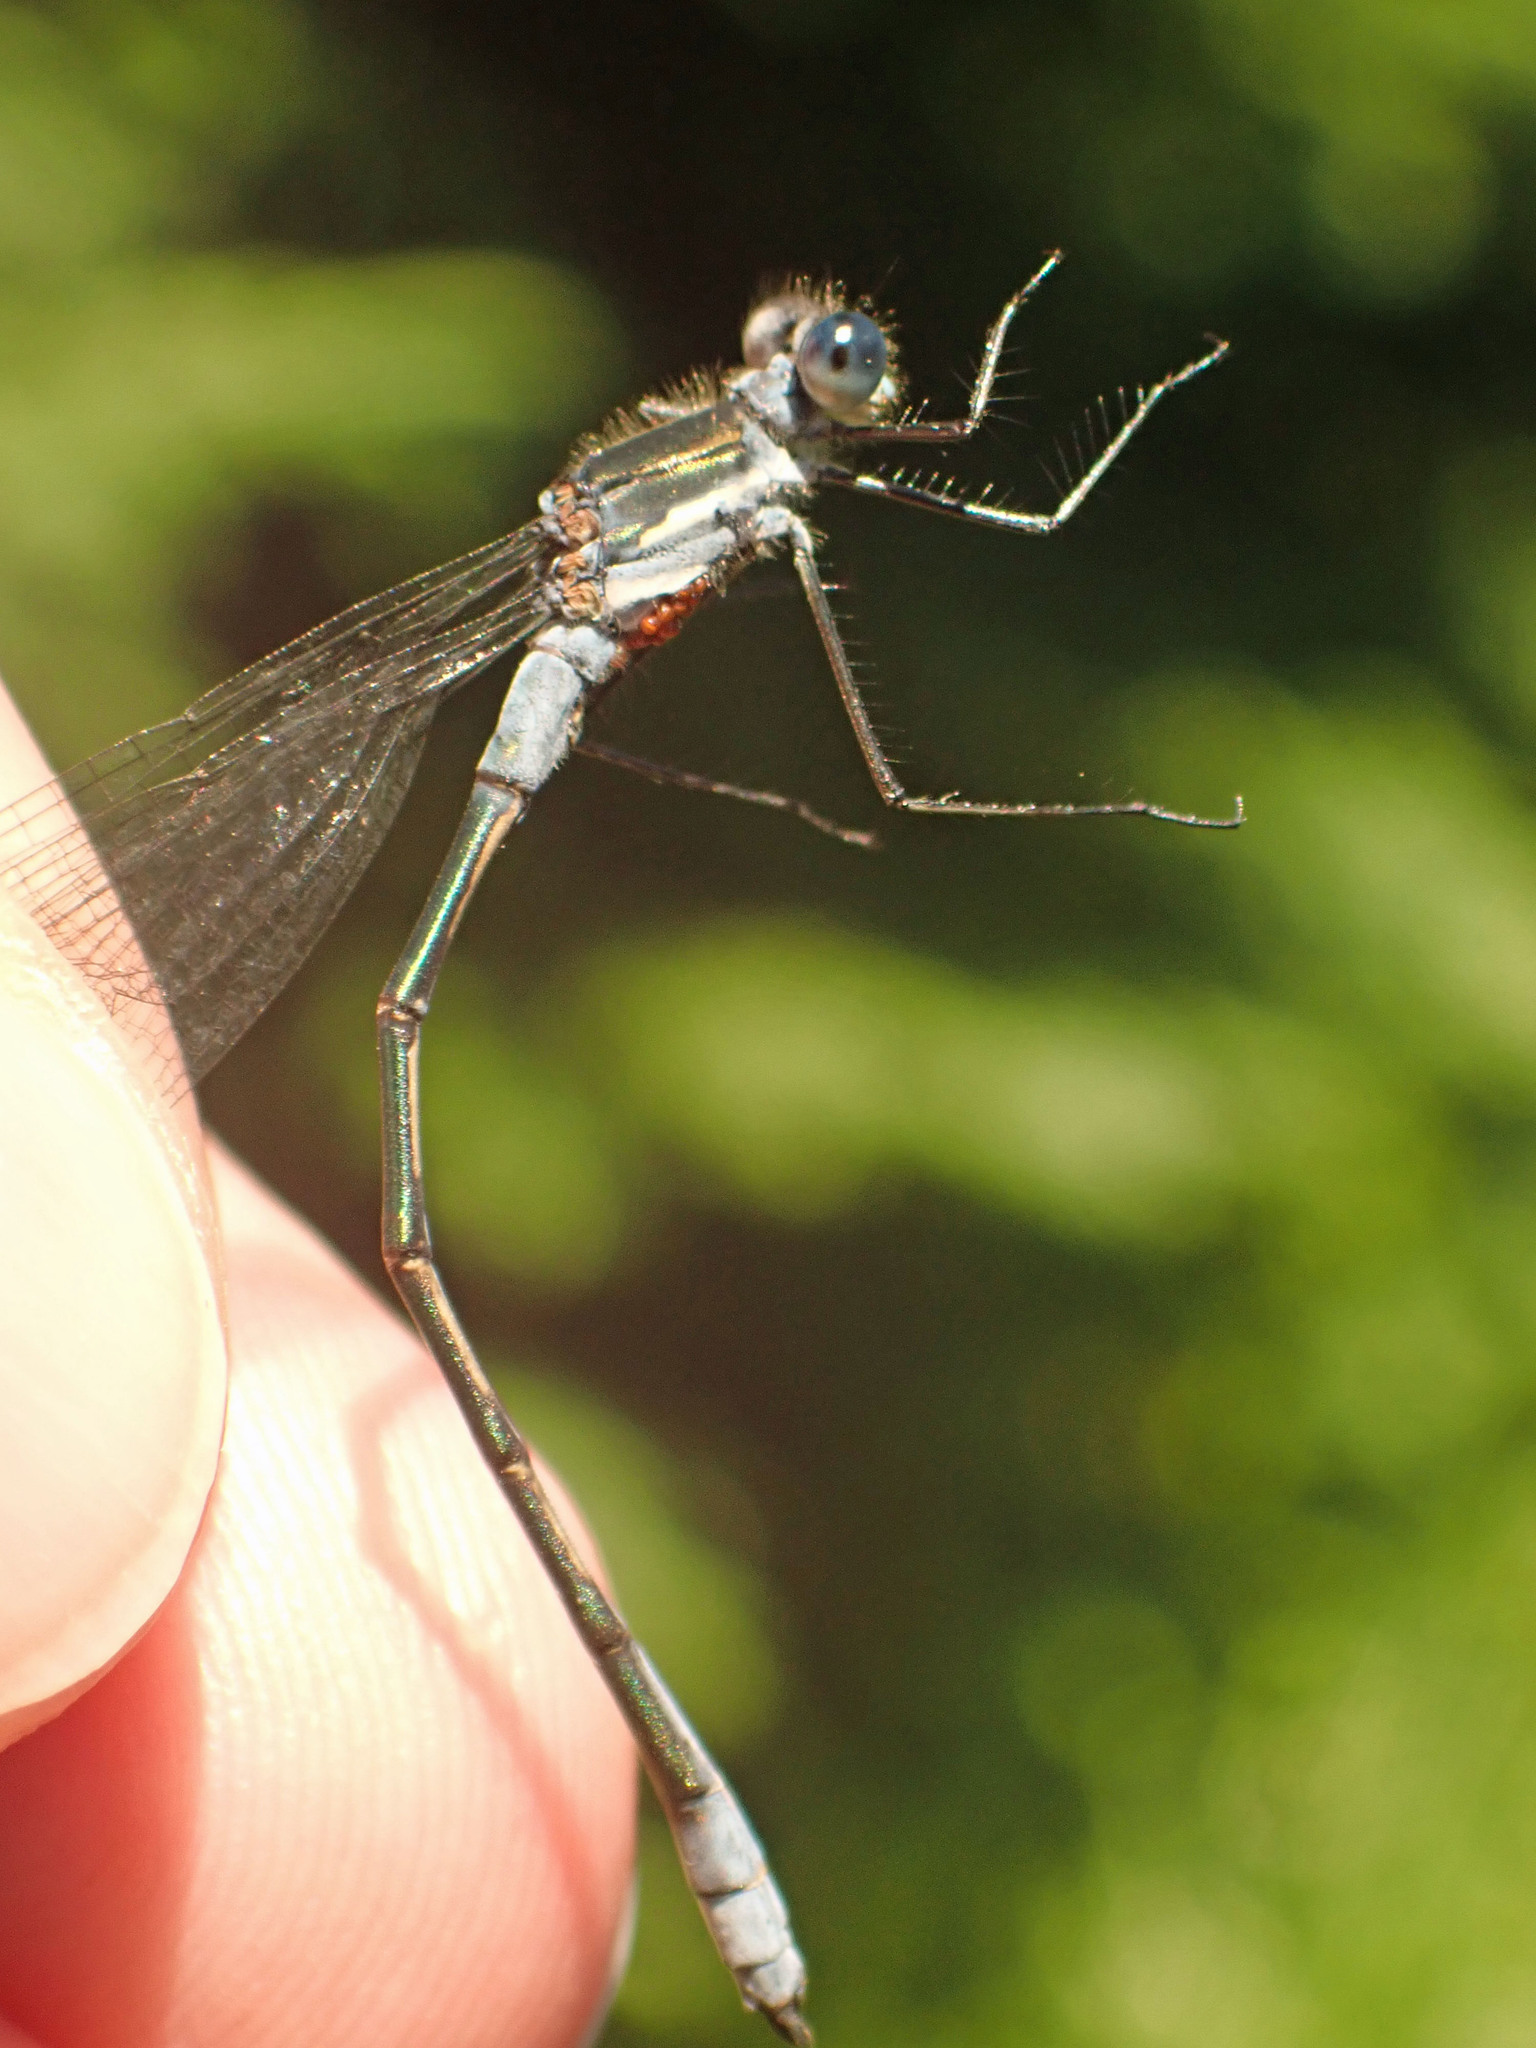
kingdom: Animalia
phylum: Arthropoda
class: Insecta
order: Odonata
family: Lestidae
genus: Lestes
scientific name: Lestes disjunctus
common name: Northern spreadwing
